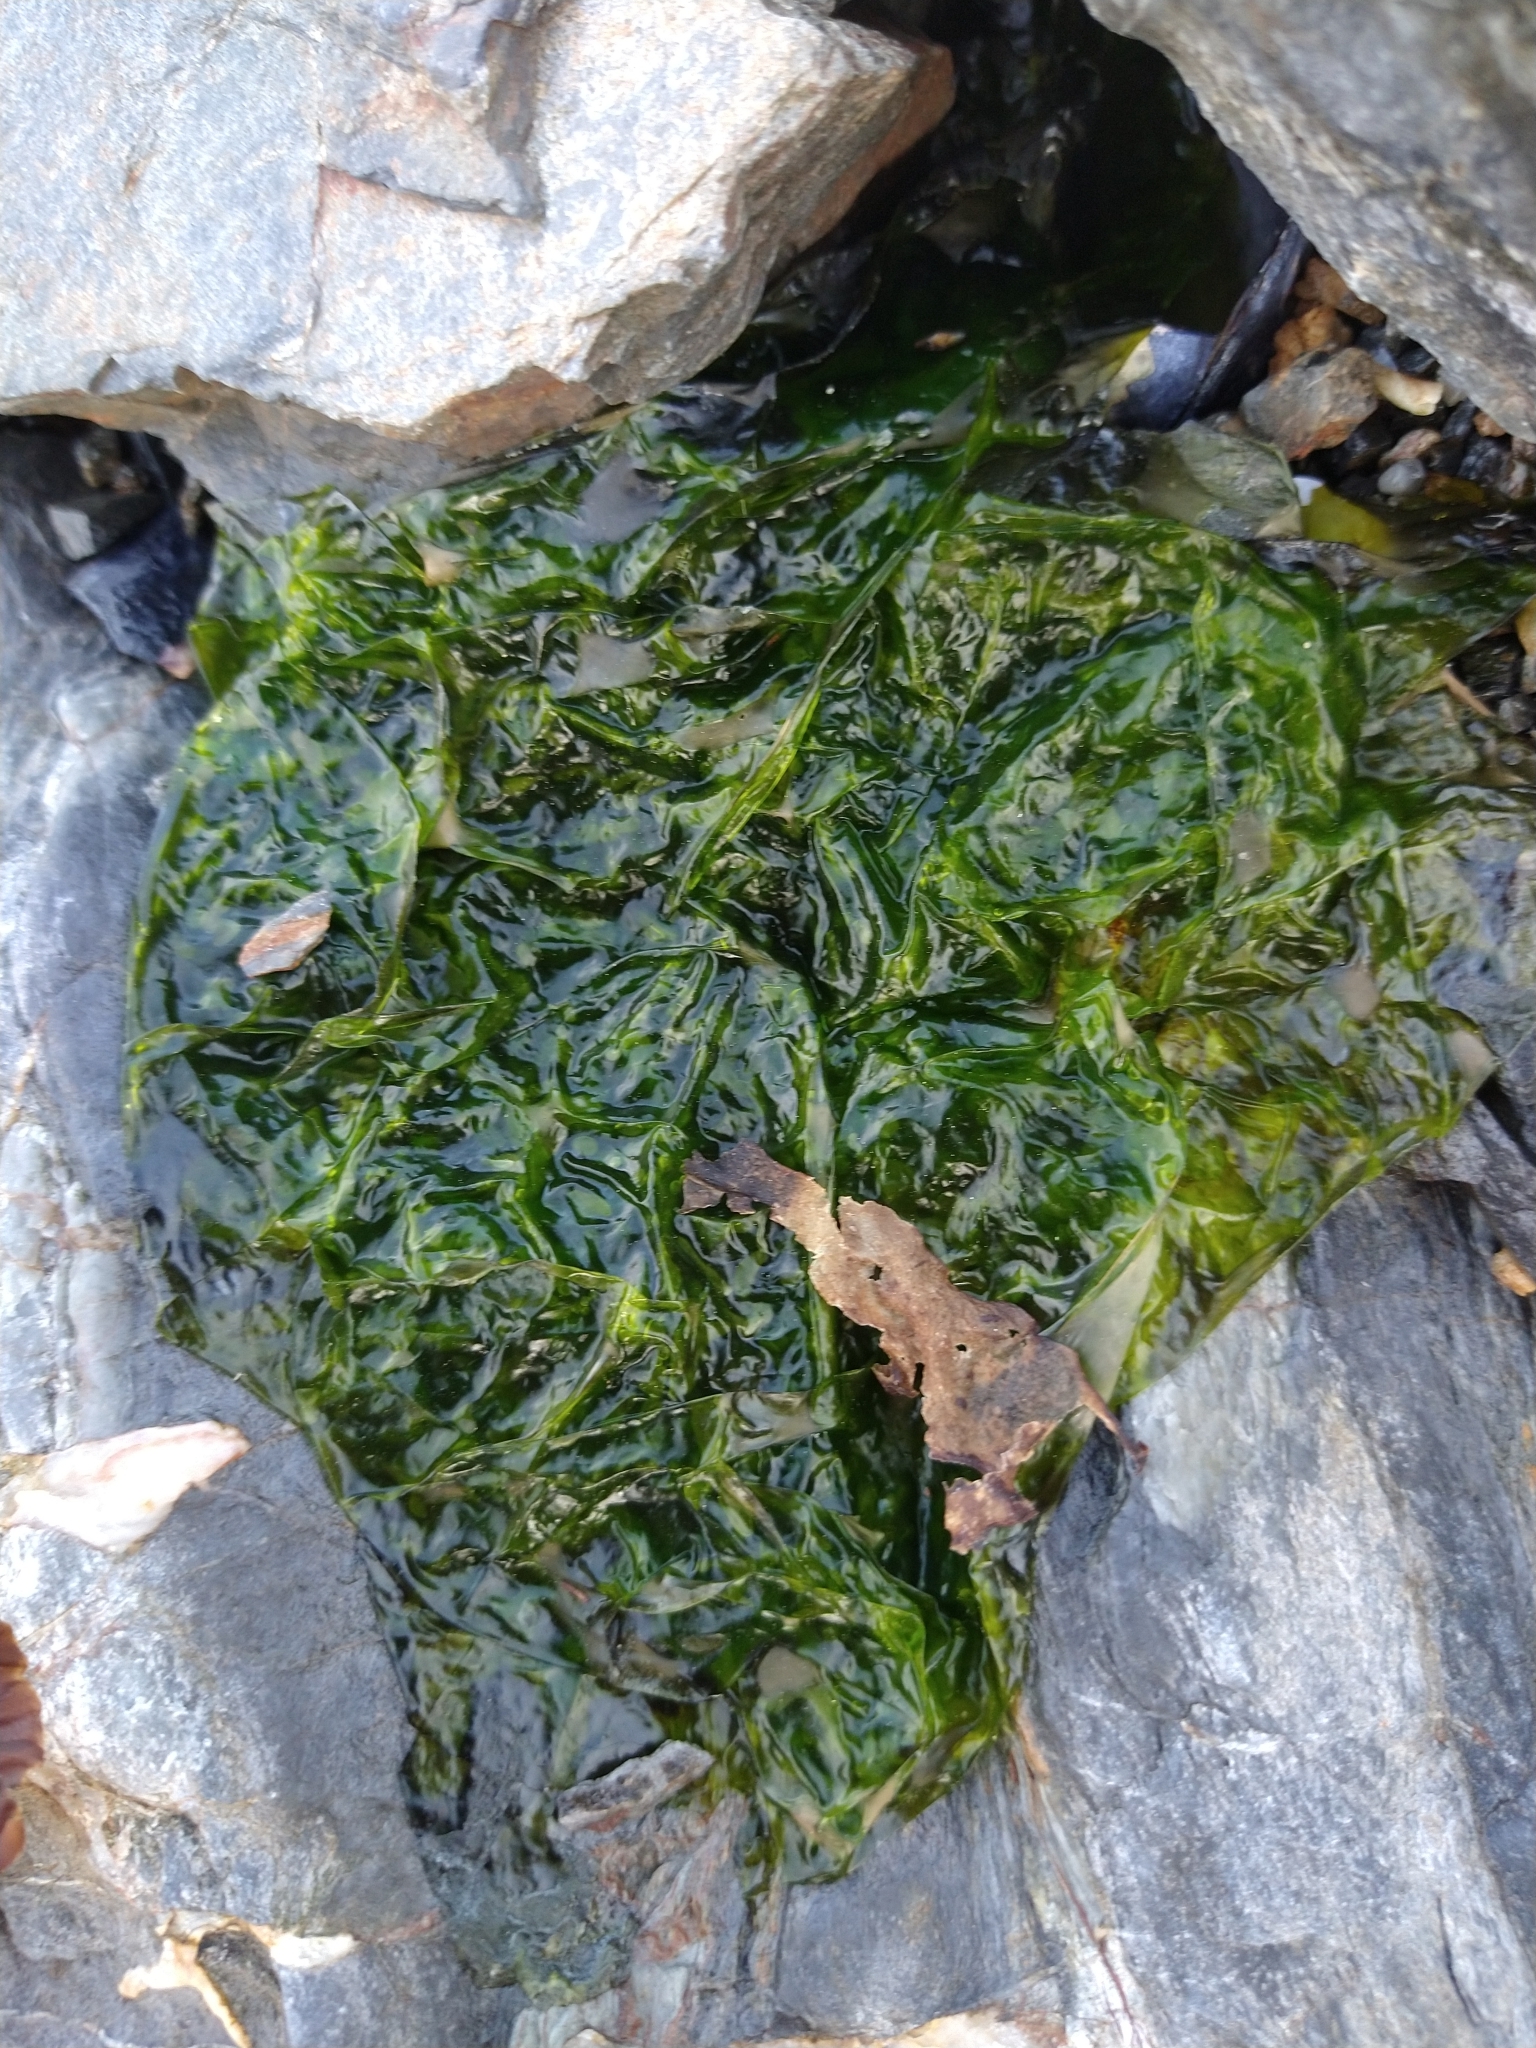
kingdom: Plantae
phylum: Chlorophyta
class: Ulvophyceae
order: Ulvales
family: Ulvaceae
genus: Ulva
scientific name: Ulva lactuca
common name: Sea lettuce
